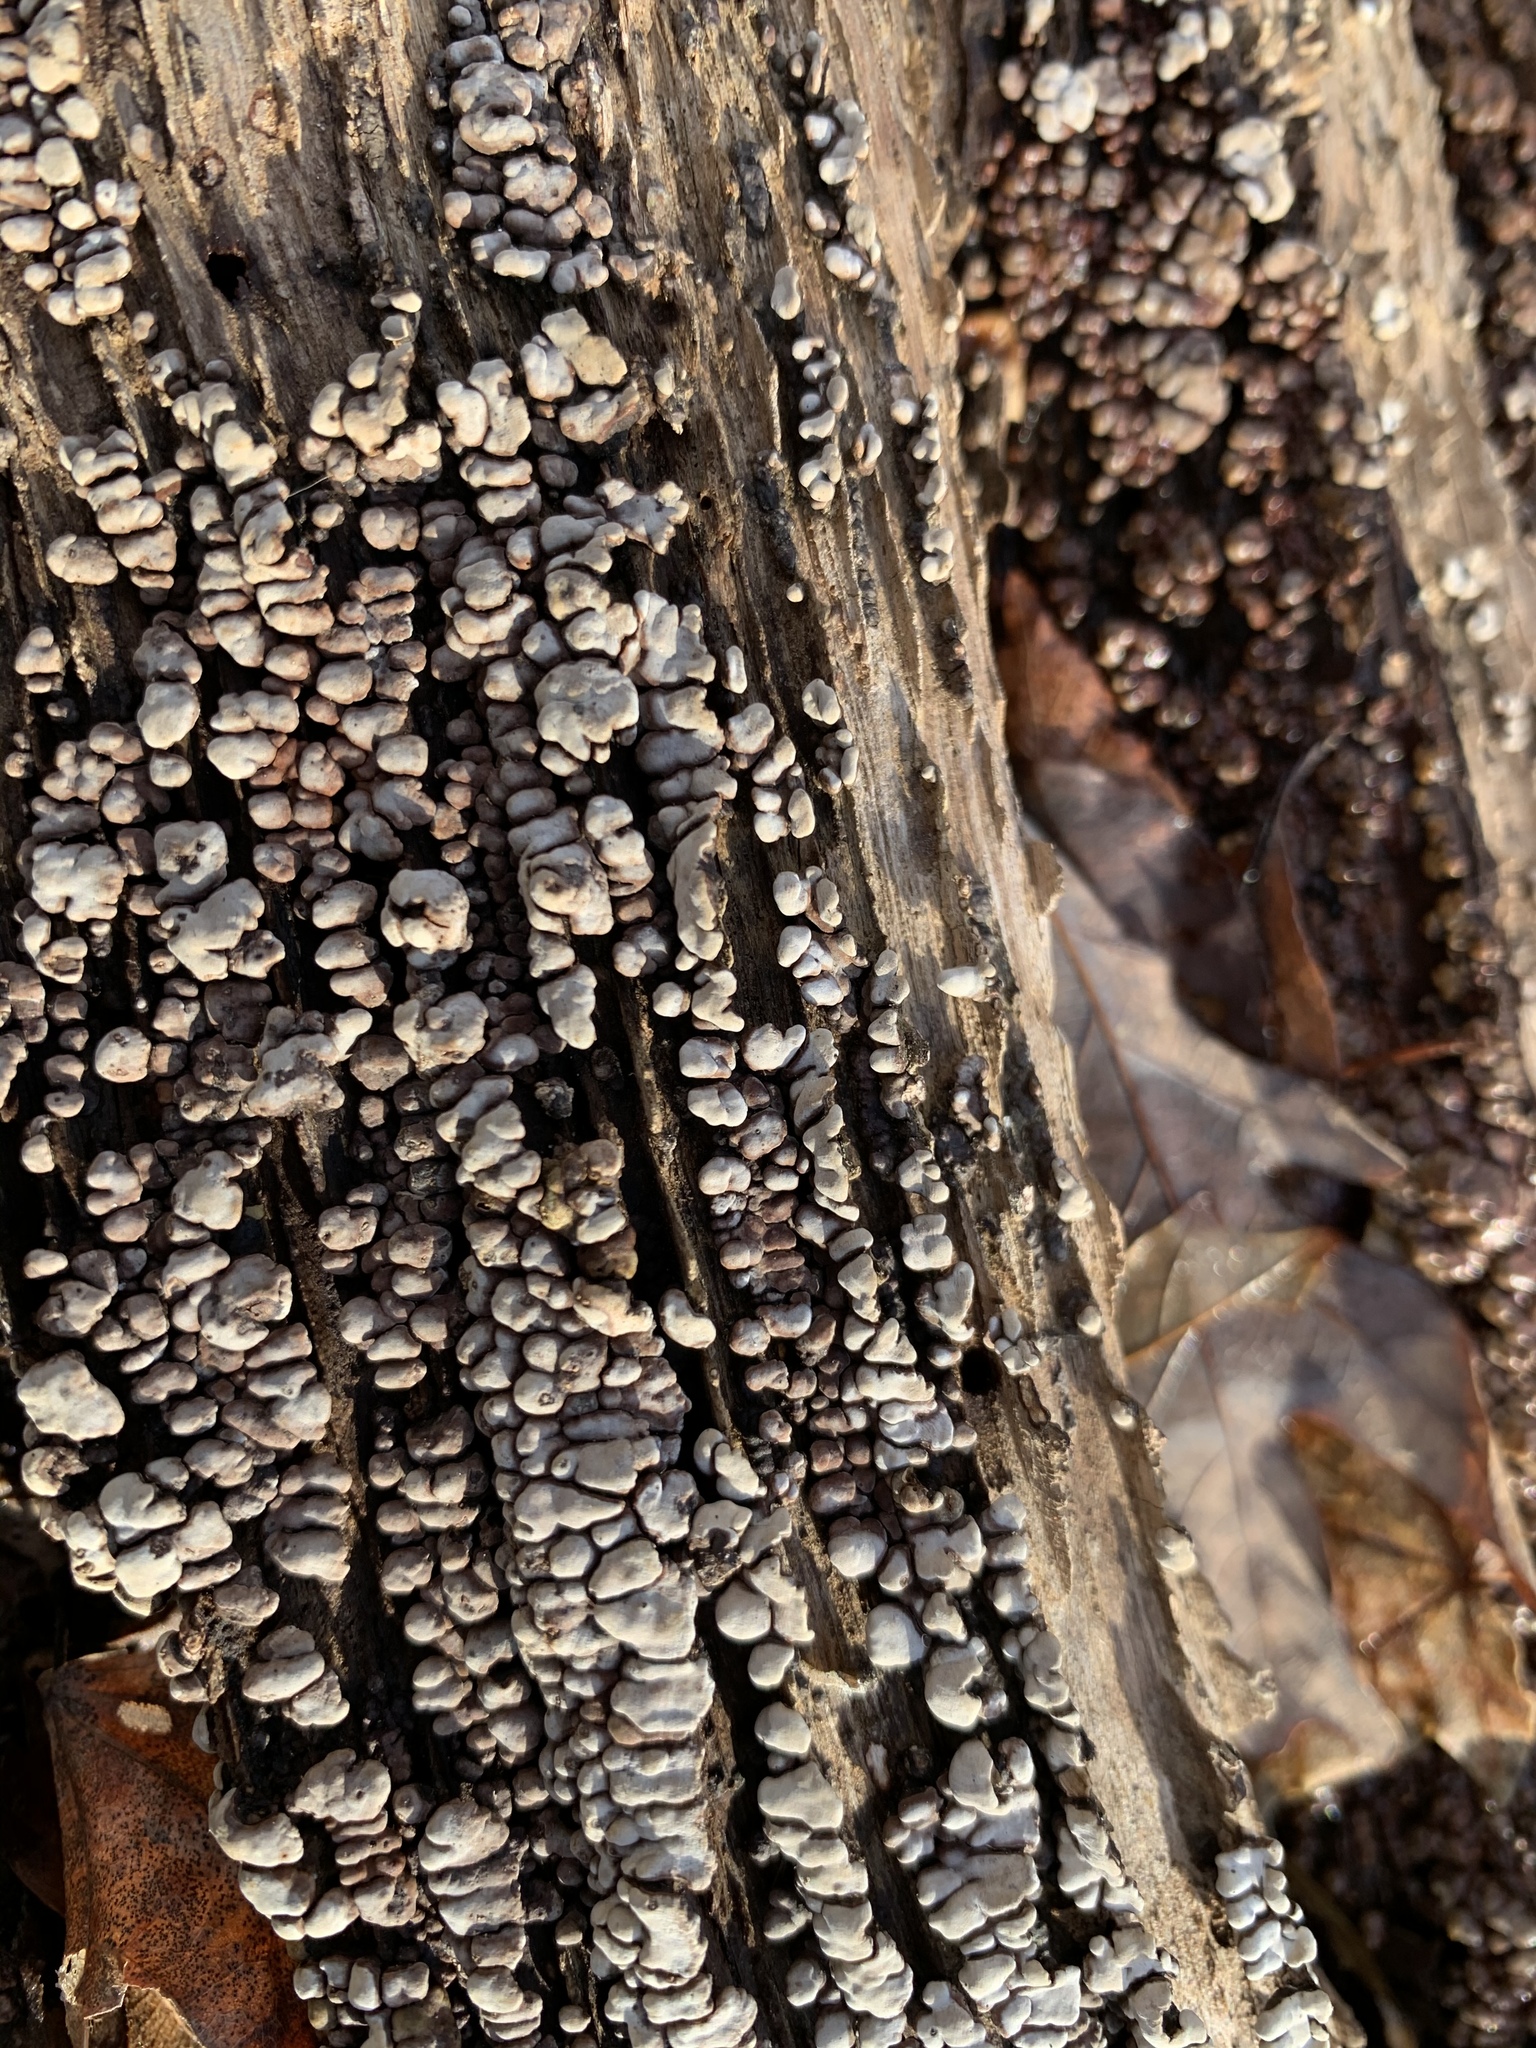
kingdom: Fungi
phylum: Basidiomycota
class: Agaricomycetes
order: Russulales
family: Stereaceae
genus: Xylobolus
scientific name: Xylobolus frustulatus
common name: Ceramic parchment
